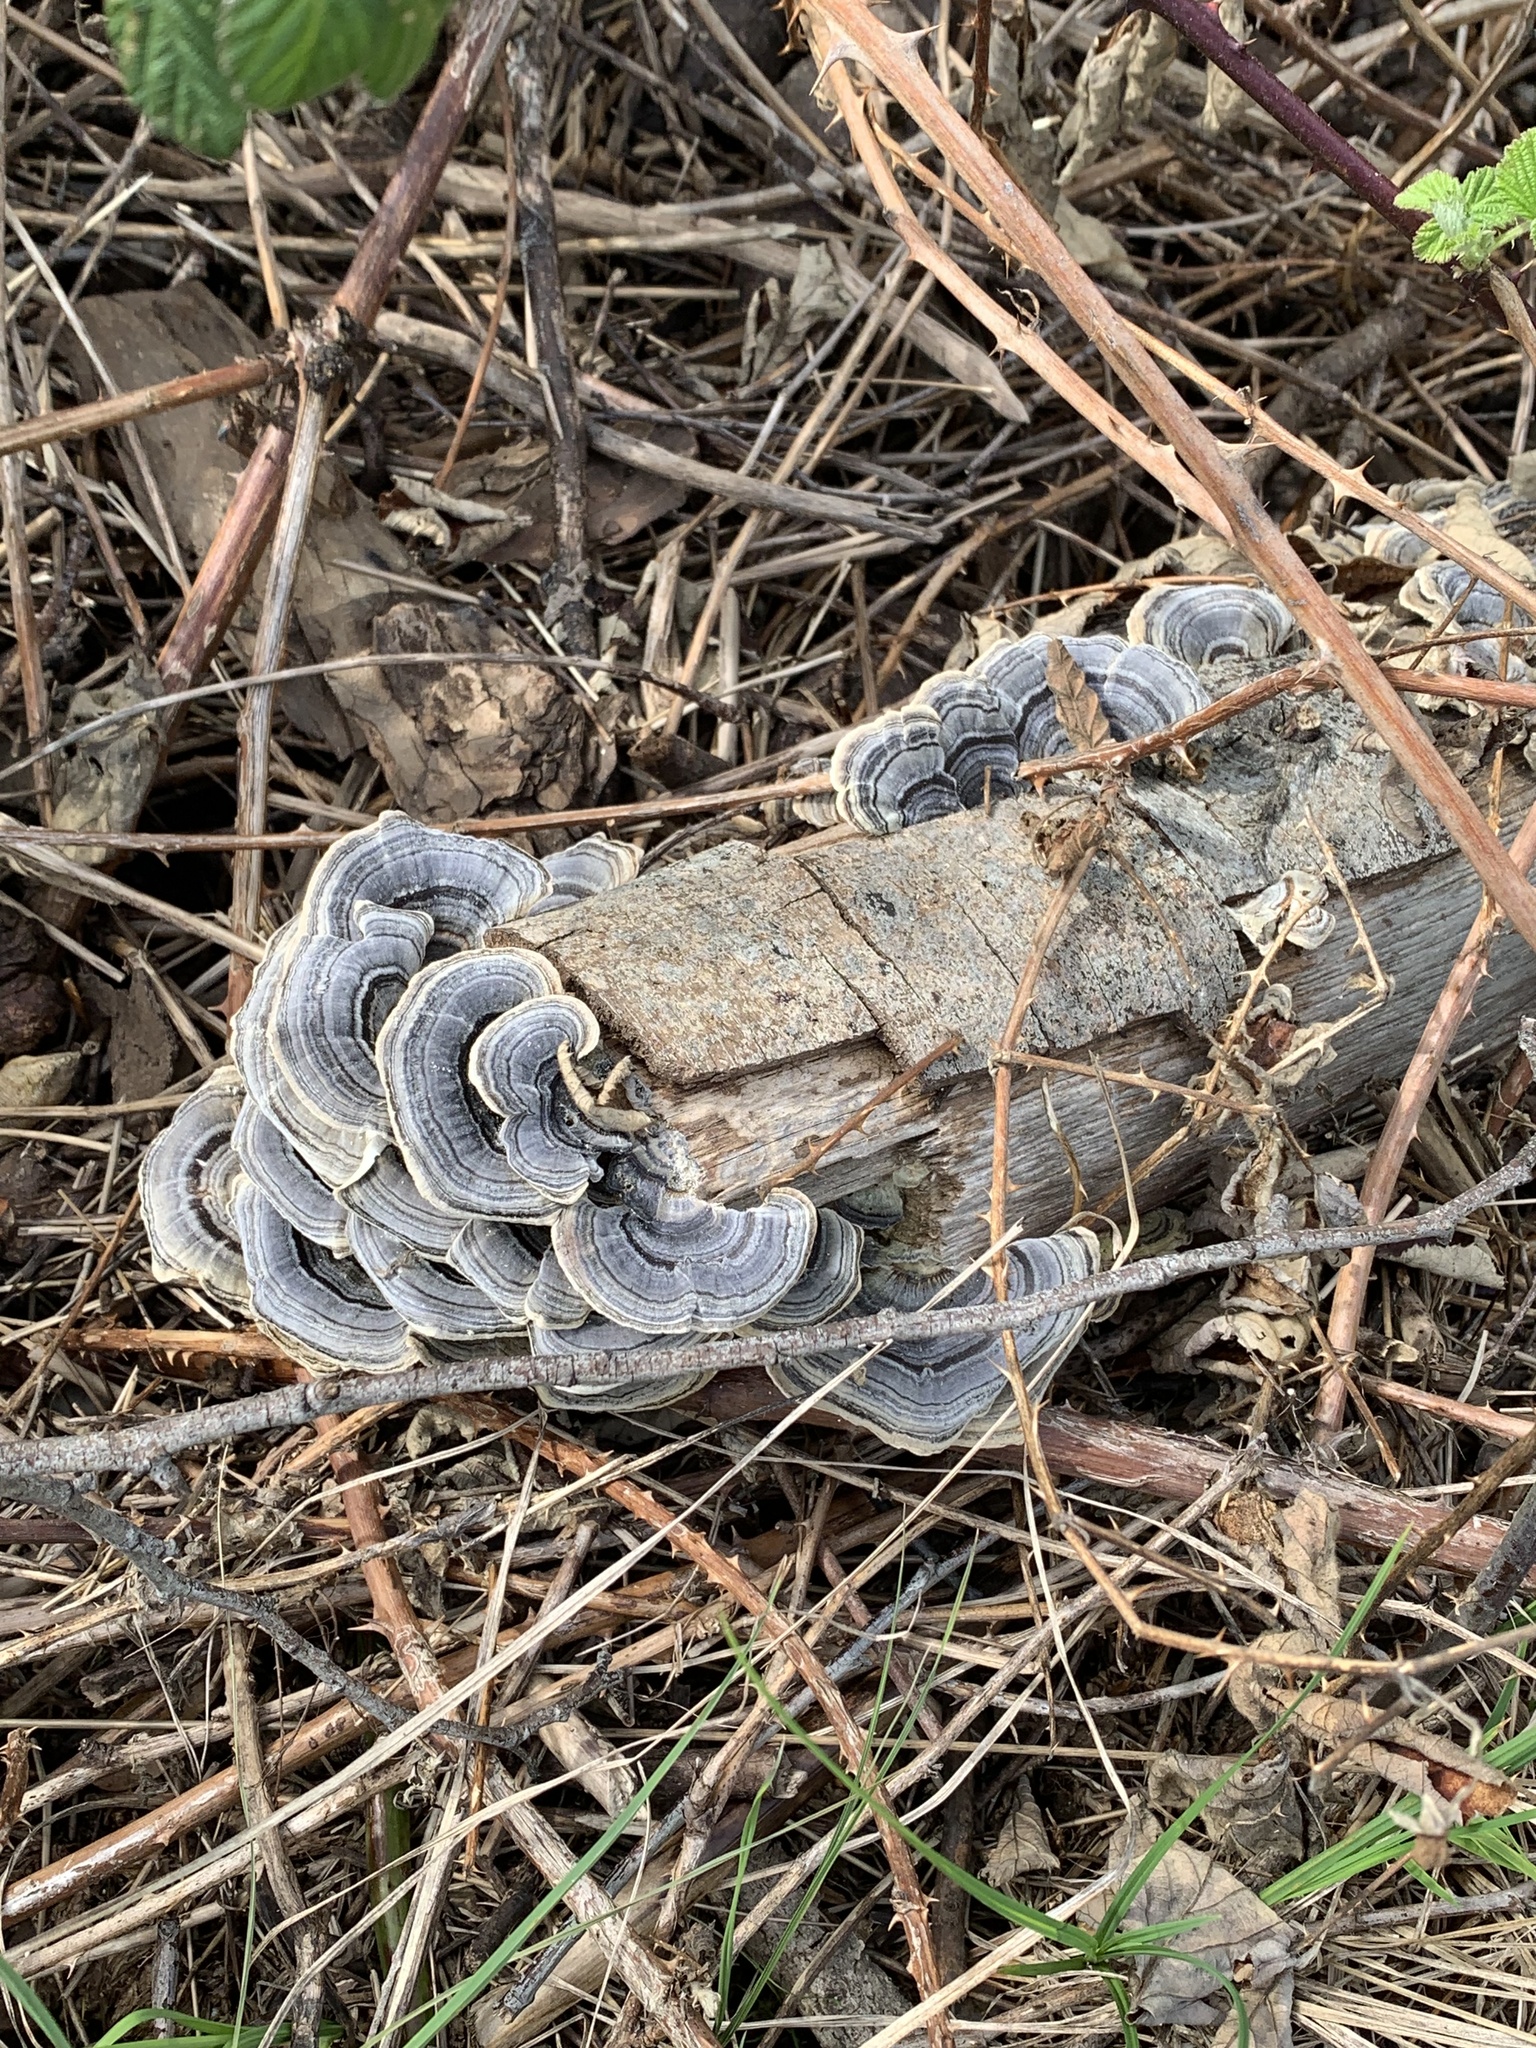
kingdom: Fungi
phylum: Basidiomycota
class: Agaricomycetes
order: Polyporales
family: Polyporaceae
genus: Trametes
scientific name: Trametes versicolor
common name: Turkeytail
